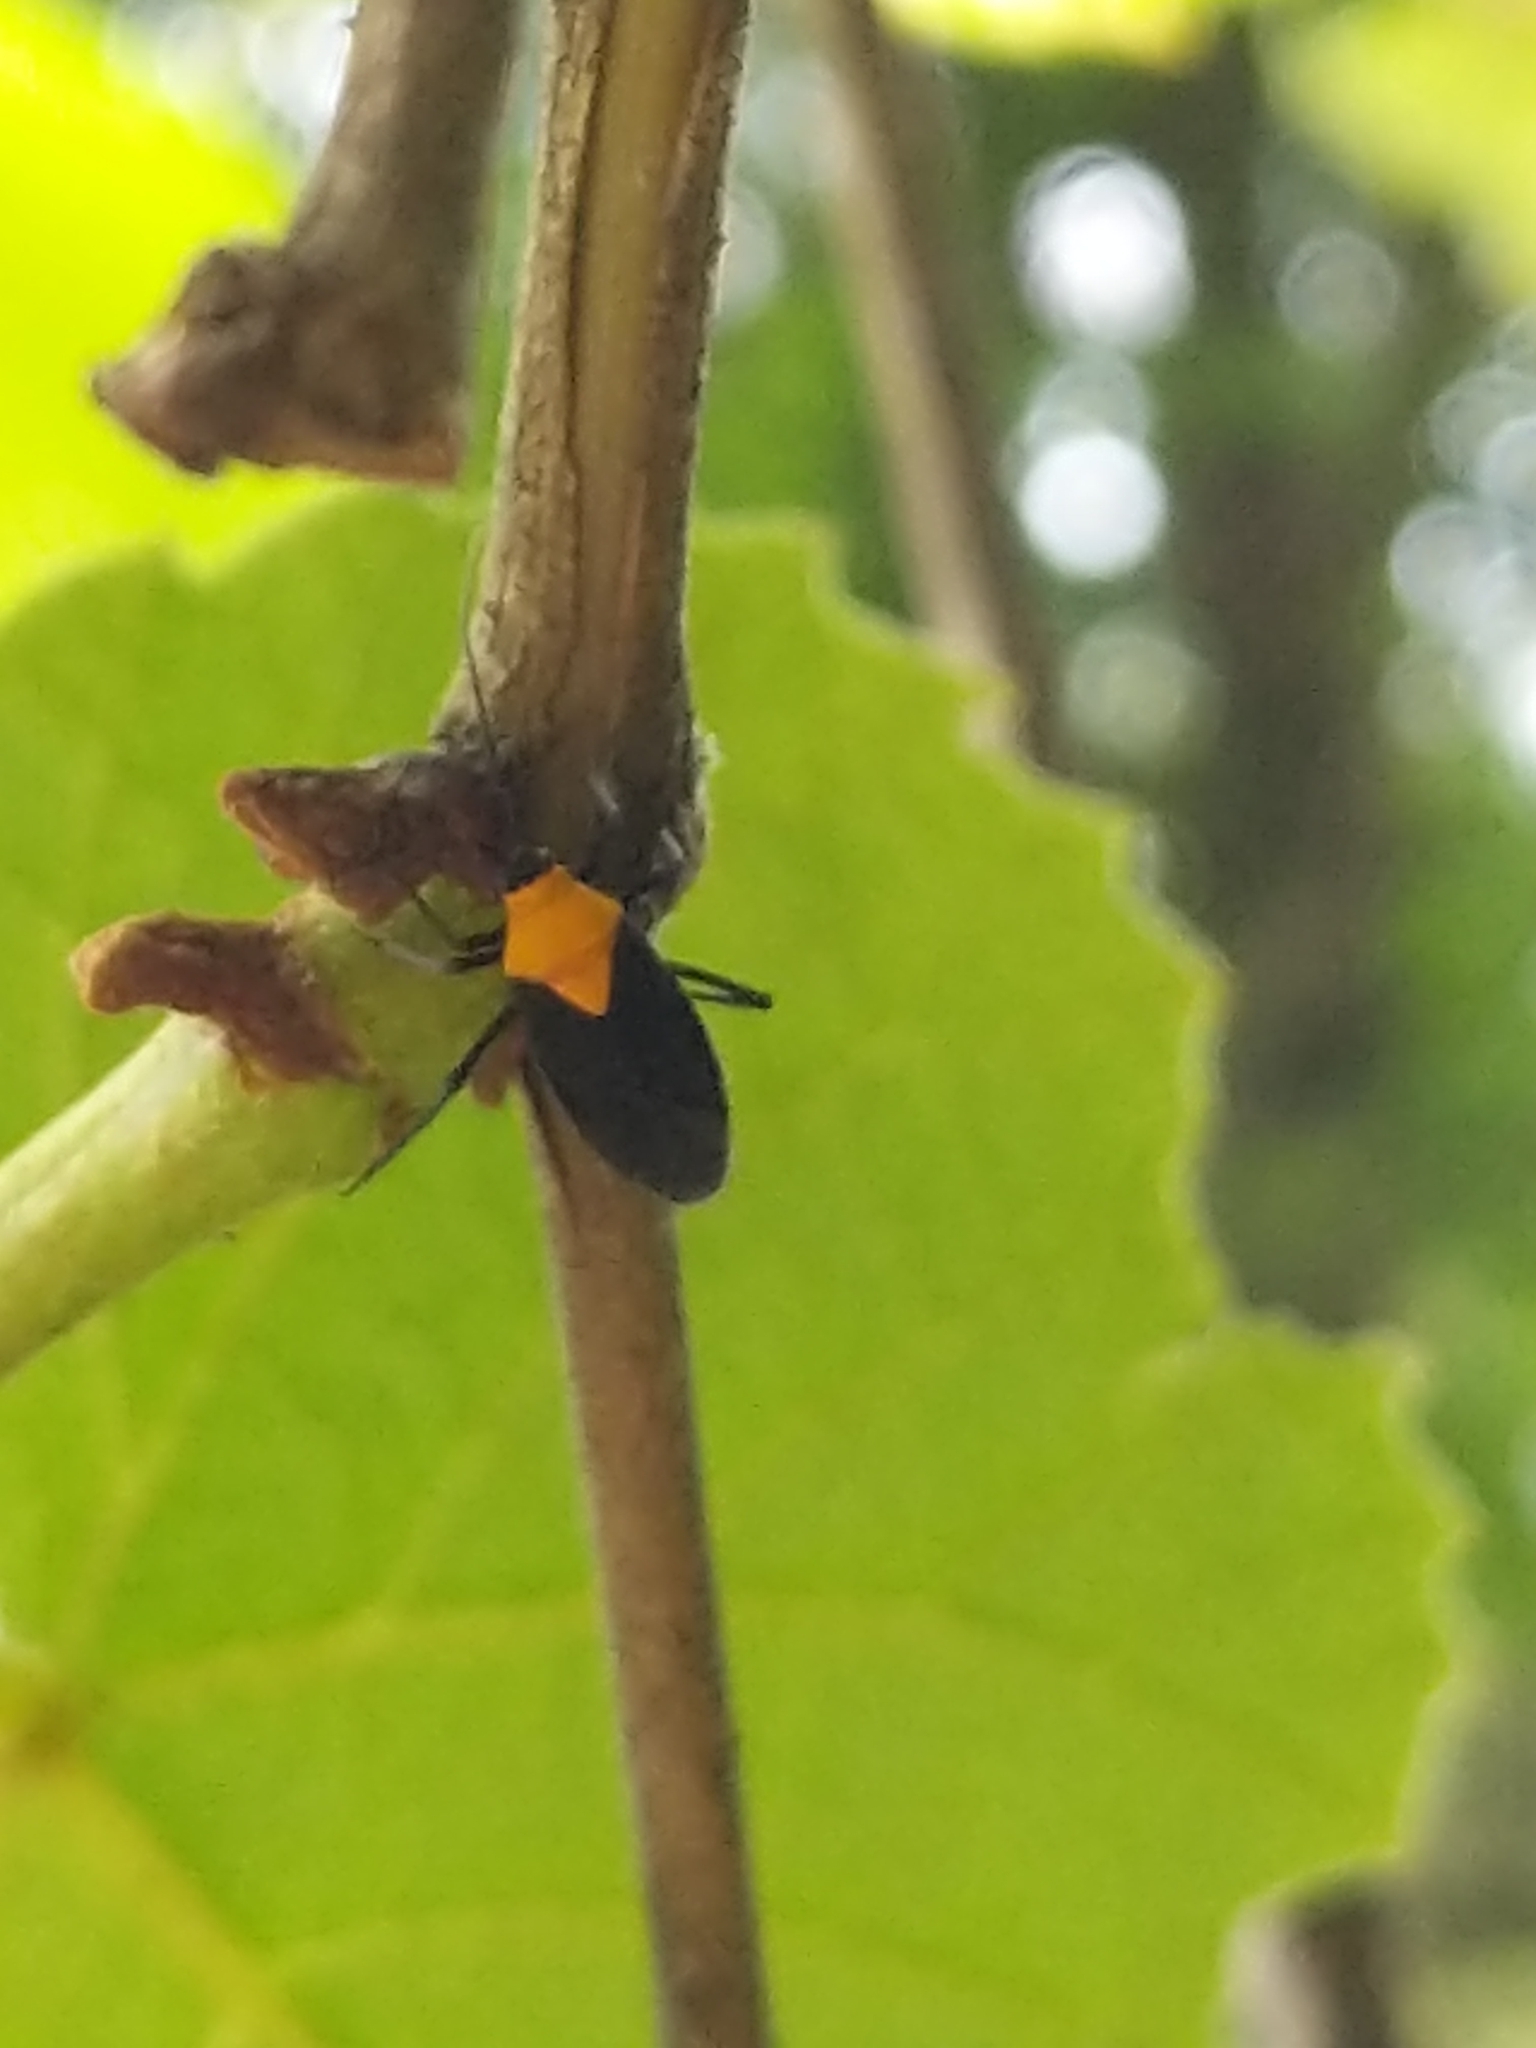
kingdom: Animalia
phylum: Arthropoda
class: Insecta
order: Hemiptera
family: Miridae
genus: Prepops
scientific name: Prepops insitivus
